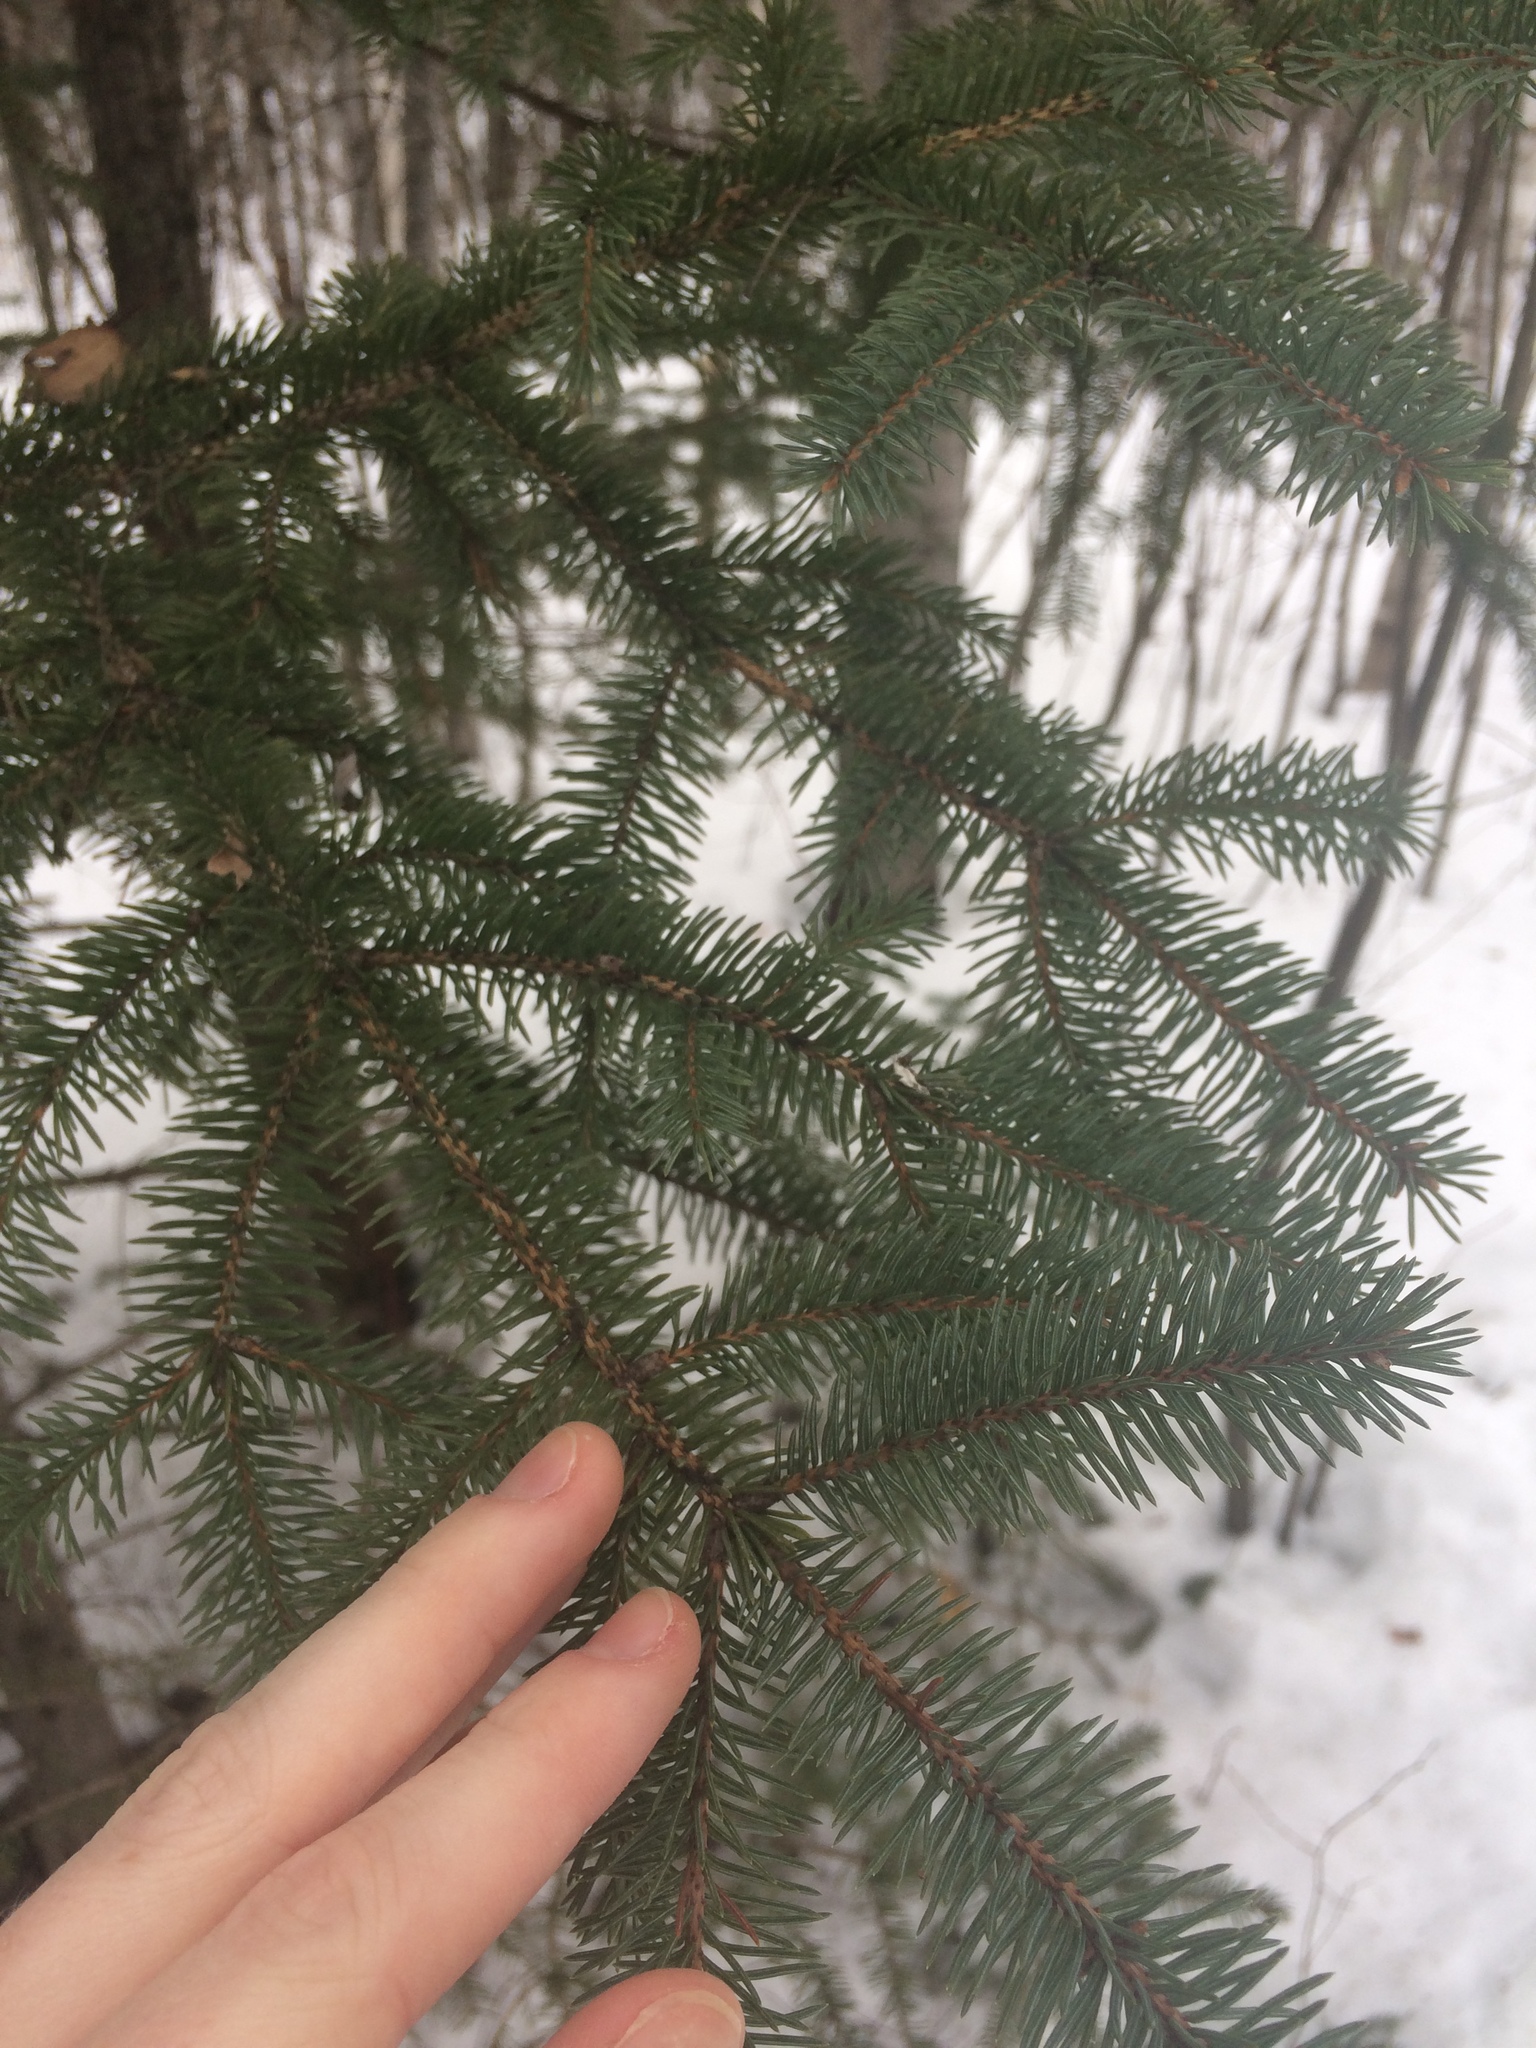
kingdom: Plantae
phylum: Tracheophyta
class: Pinopsida
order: Pinales
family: Pinaceae
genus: Picea
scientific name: Picea glauca
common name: White spruce
